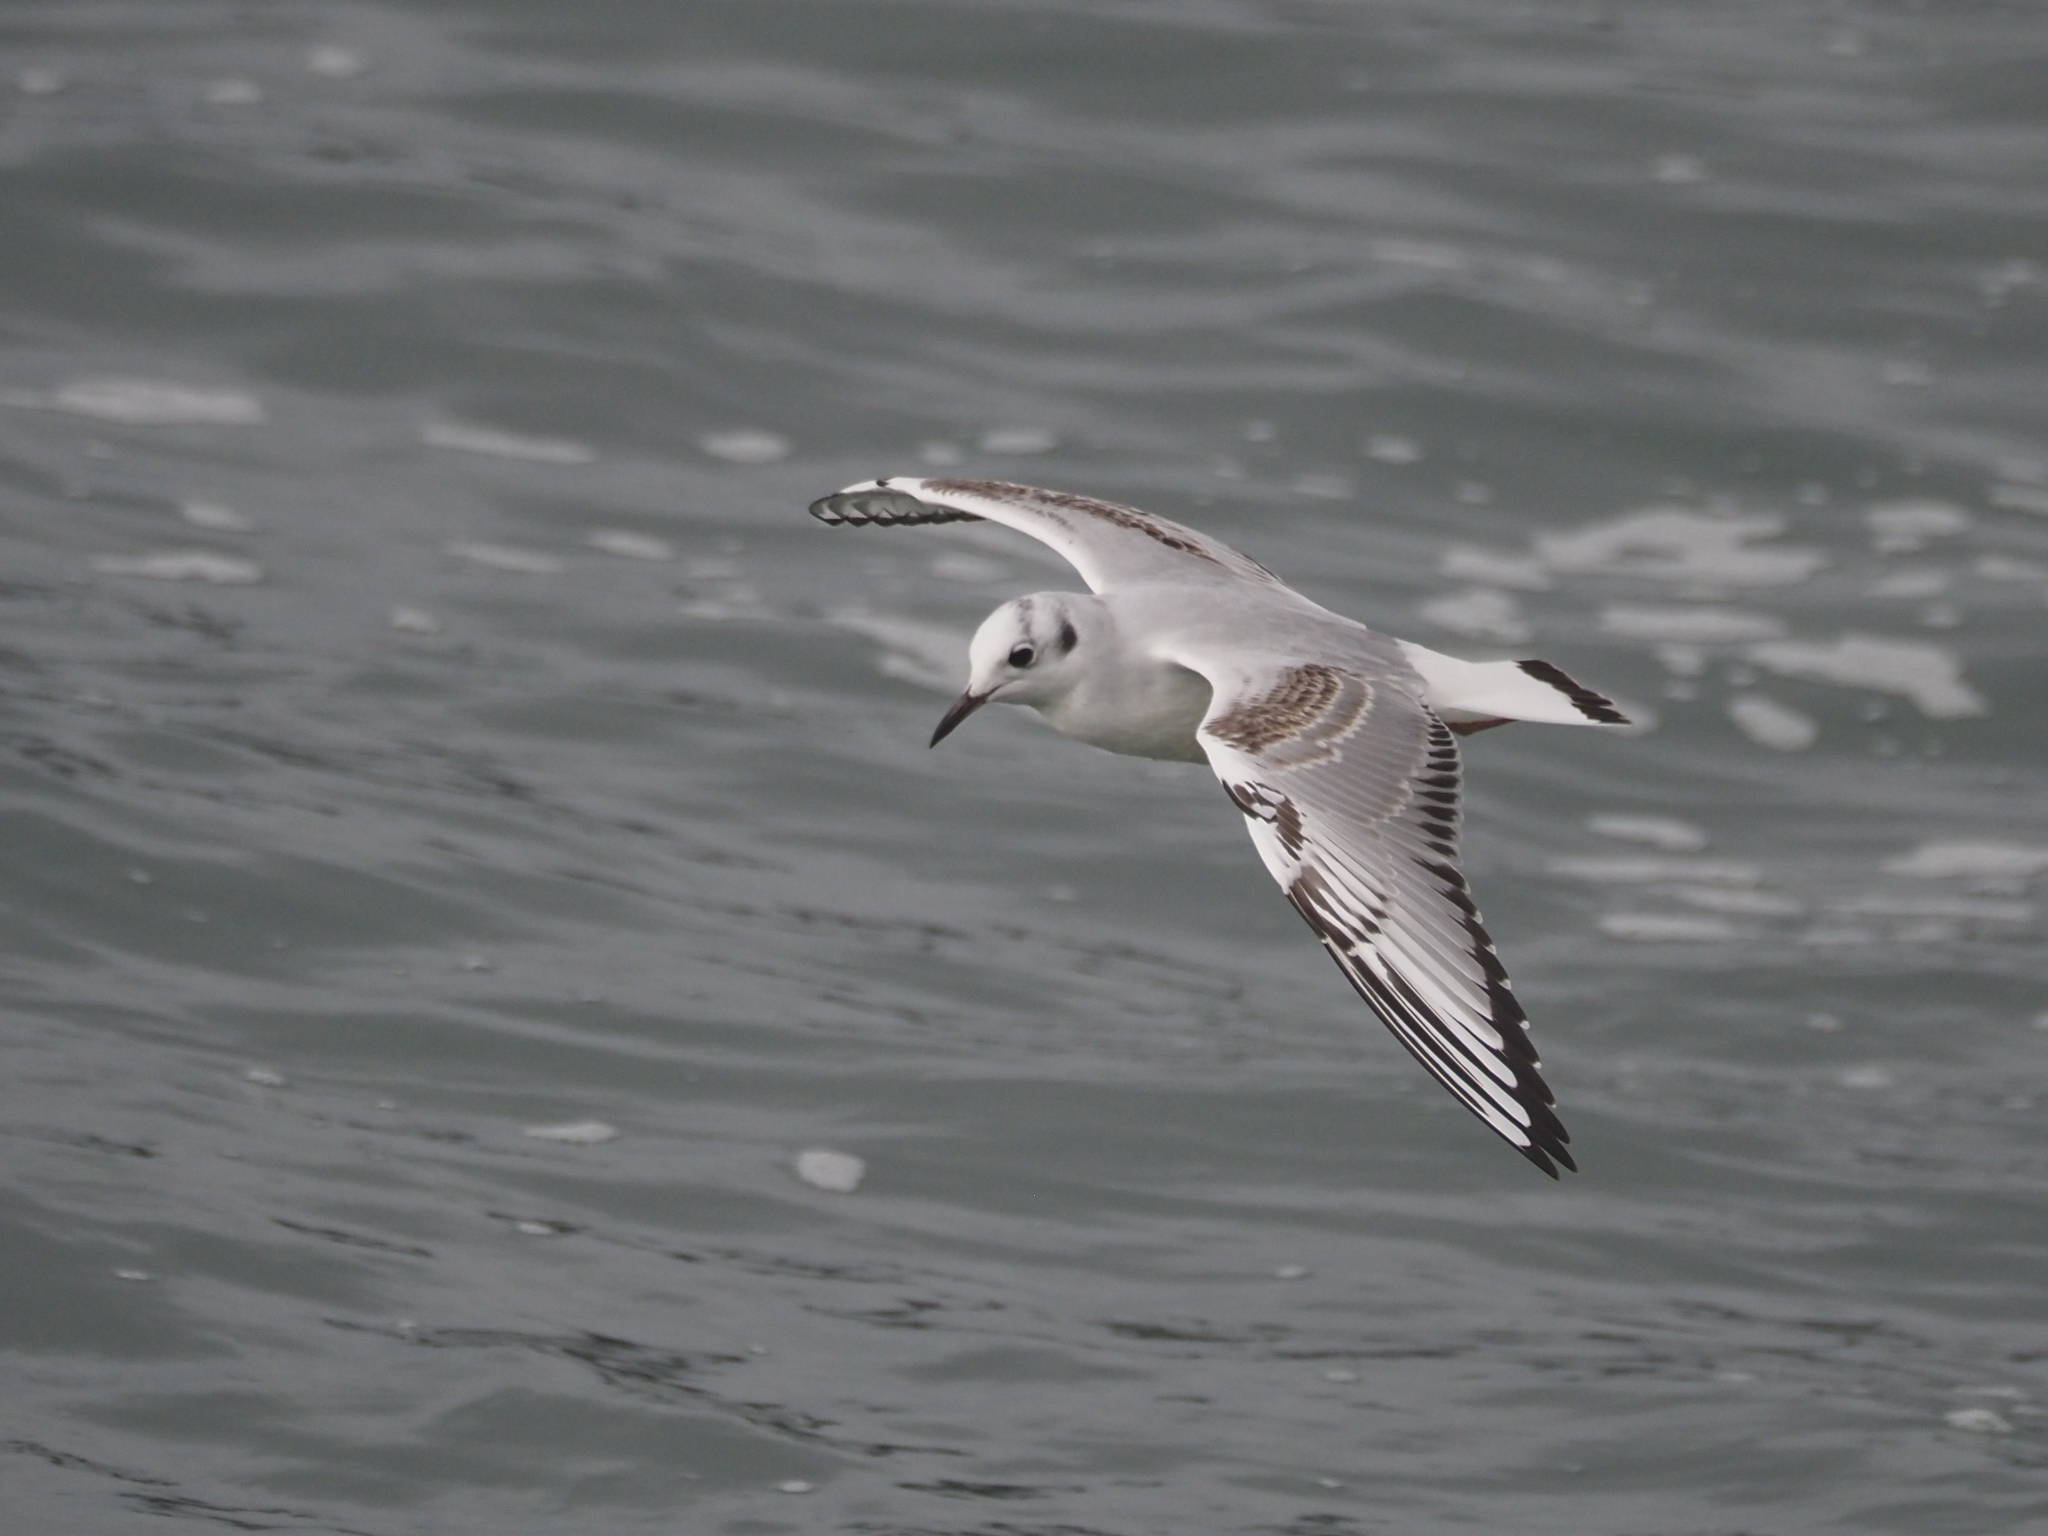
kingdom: Animalia
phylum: Chordata
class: Aves
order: Charadriiformes
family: Laridae
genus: Chroicocephalus
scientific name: Chroicocephalus philadelphia
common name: Bonaparte's gull
